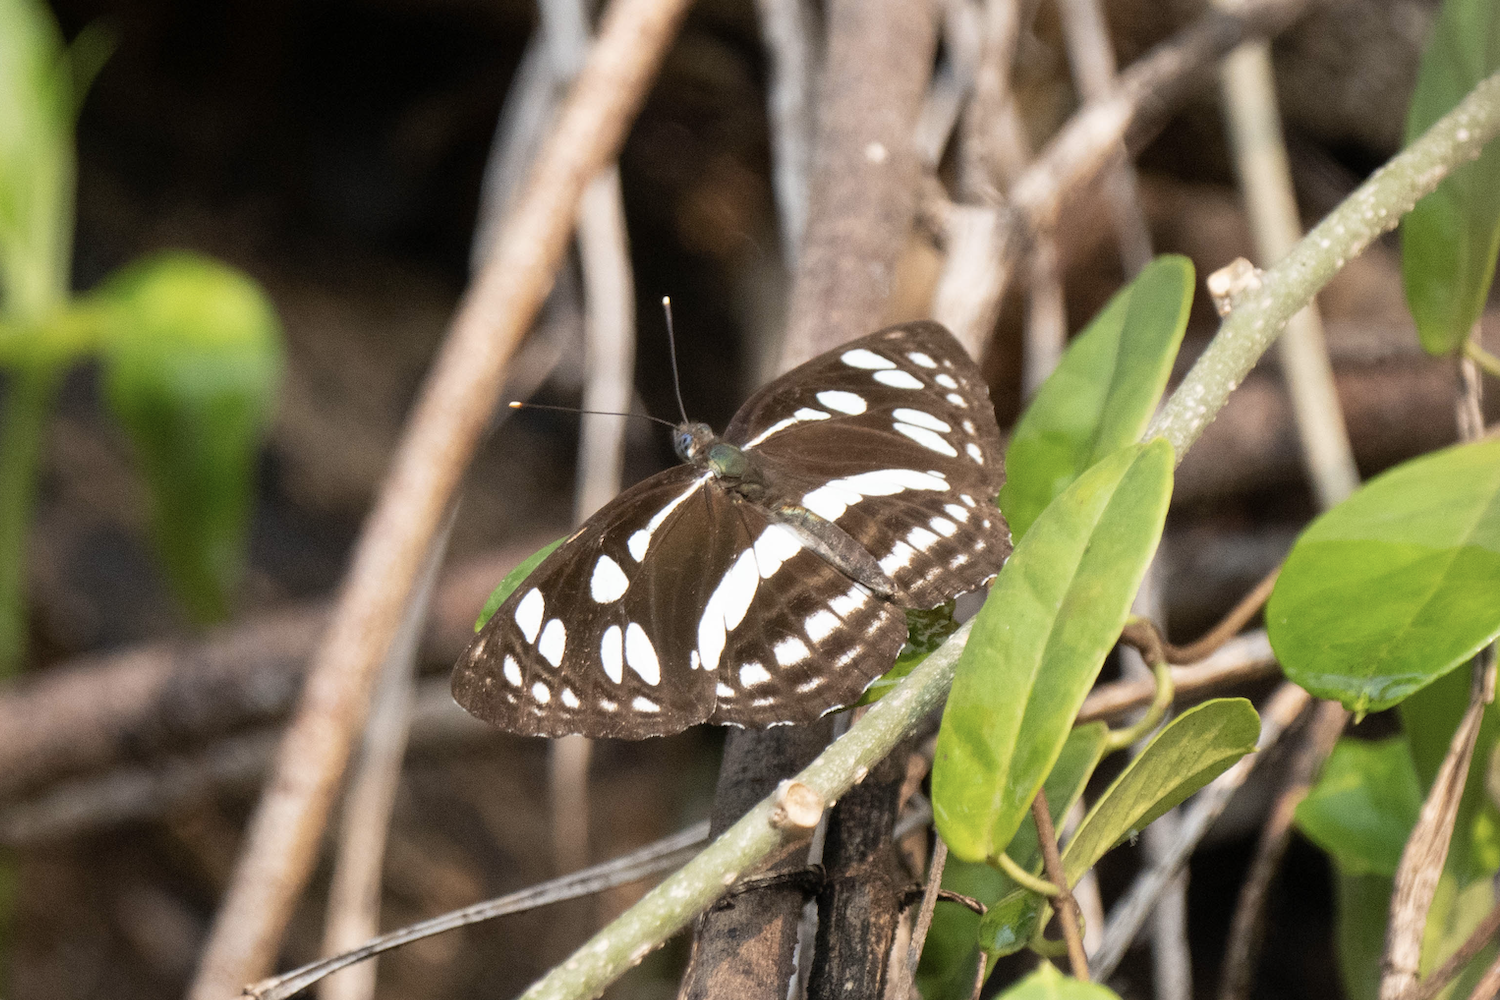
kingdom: Animalia
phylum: Arthropoda
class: Insecta
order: Lepidoptera
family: Nymphalidae
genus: Phaedyma
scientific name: Phaedyma columella
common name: Short banded sailer
